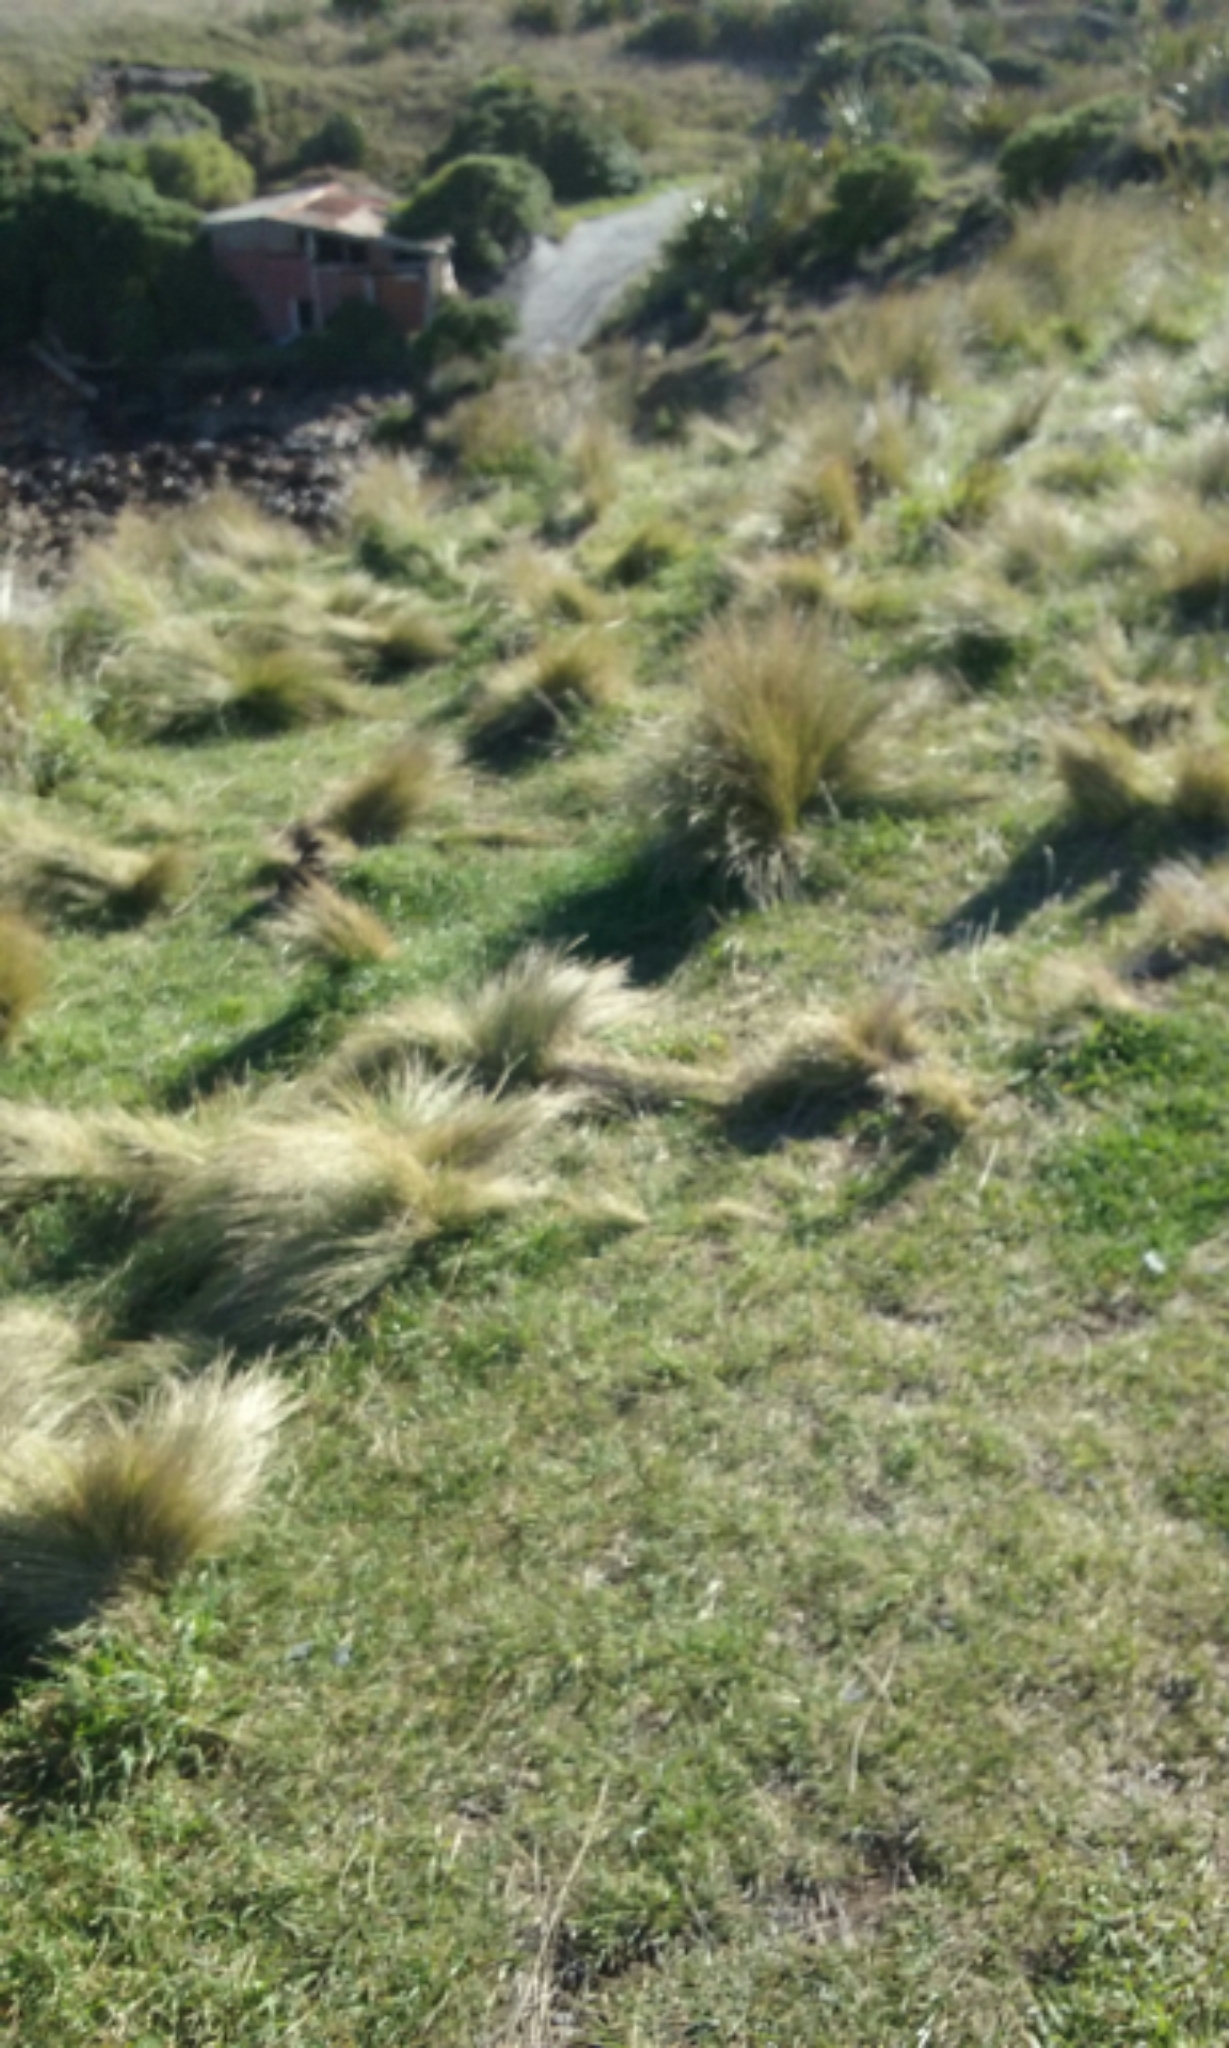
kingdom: Plantae
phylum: Tracheophyta
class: Liliopsida
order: Poales
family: Poaceae
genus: Poa
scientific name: Poa cita
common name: Silver tussock
